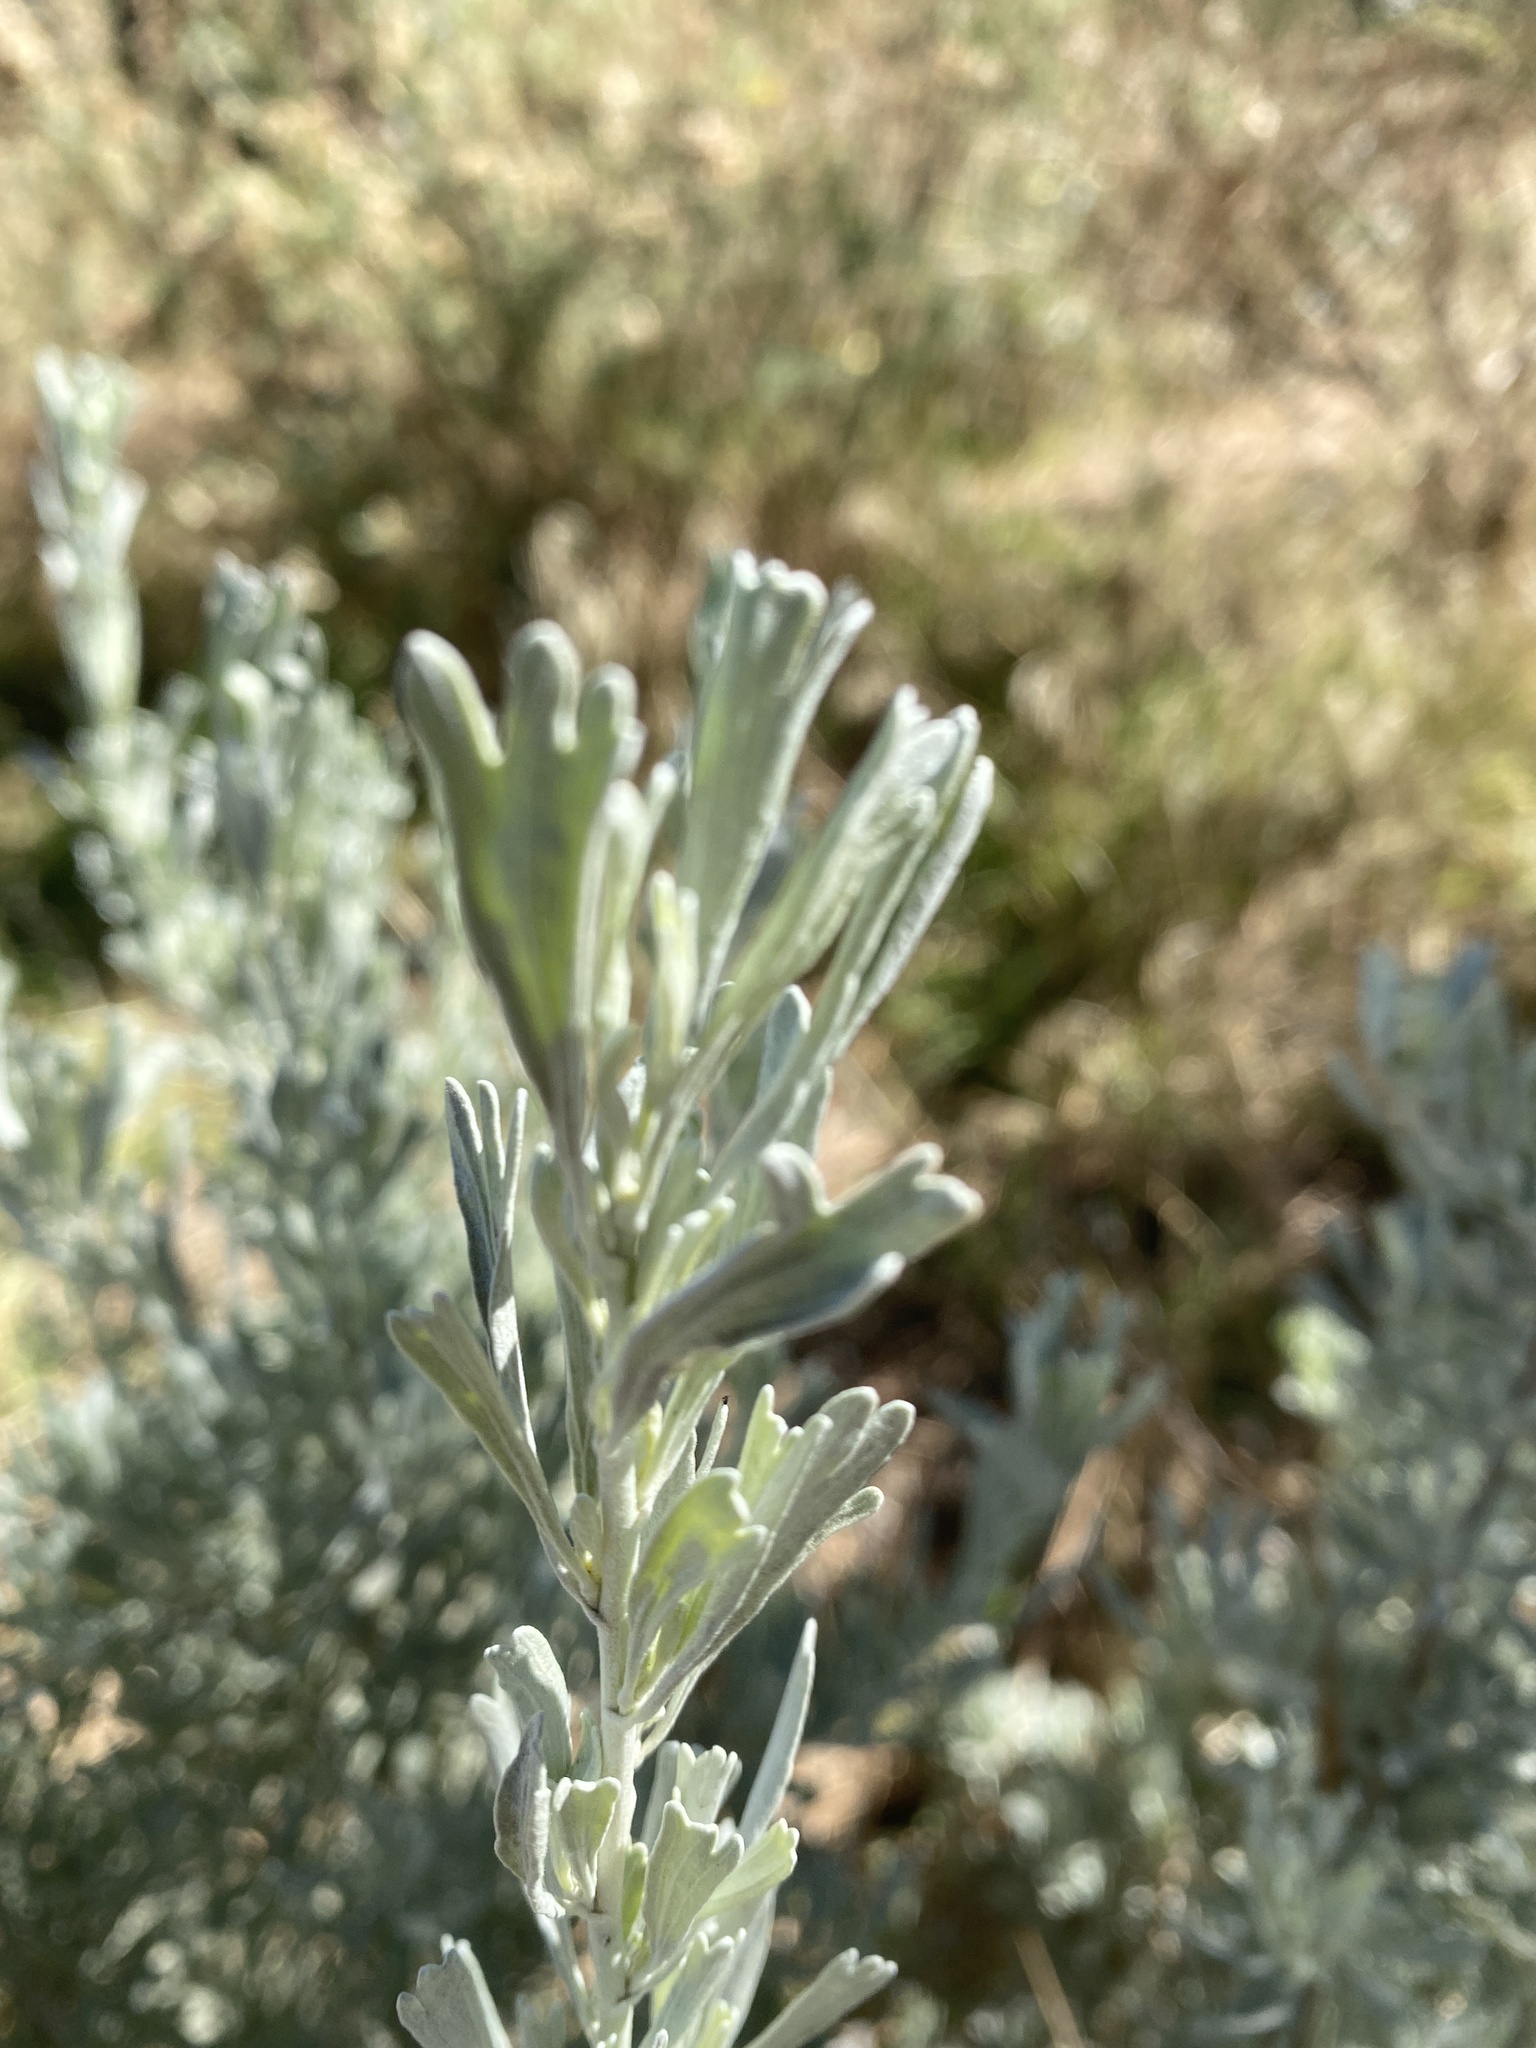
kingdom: Plantae
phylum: Tracheophyta
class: Magnoliopsida
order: Asterales
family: Asteraceae
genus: Artemisia
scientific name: Artemisia tridentata
